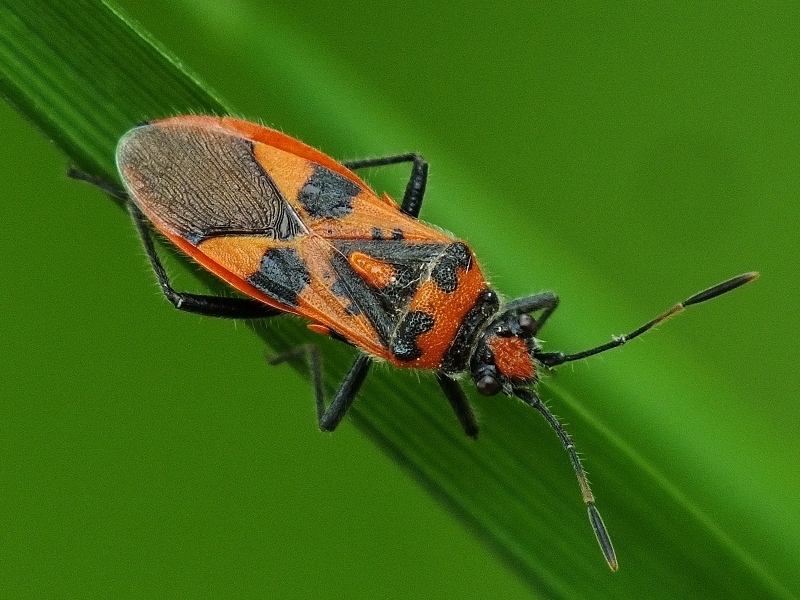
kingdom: Animalia
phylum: Arthropoda
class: Insecta
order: Hemiptera
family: Rhopalidae
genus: Corizus
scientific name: Corizus hyoscyami
